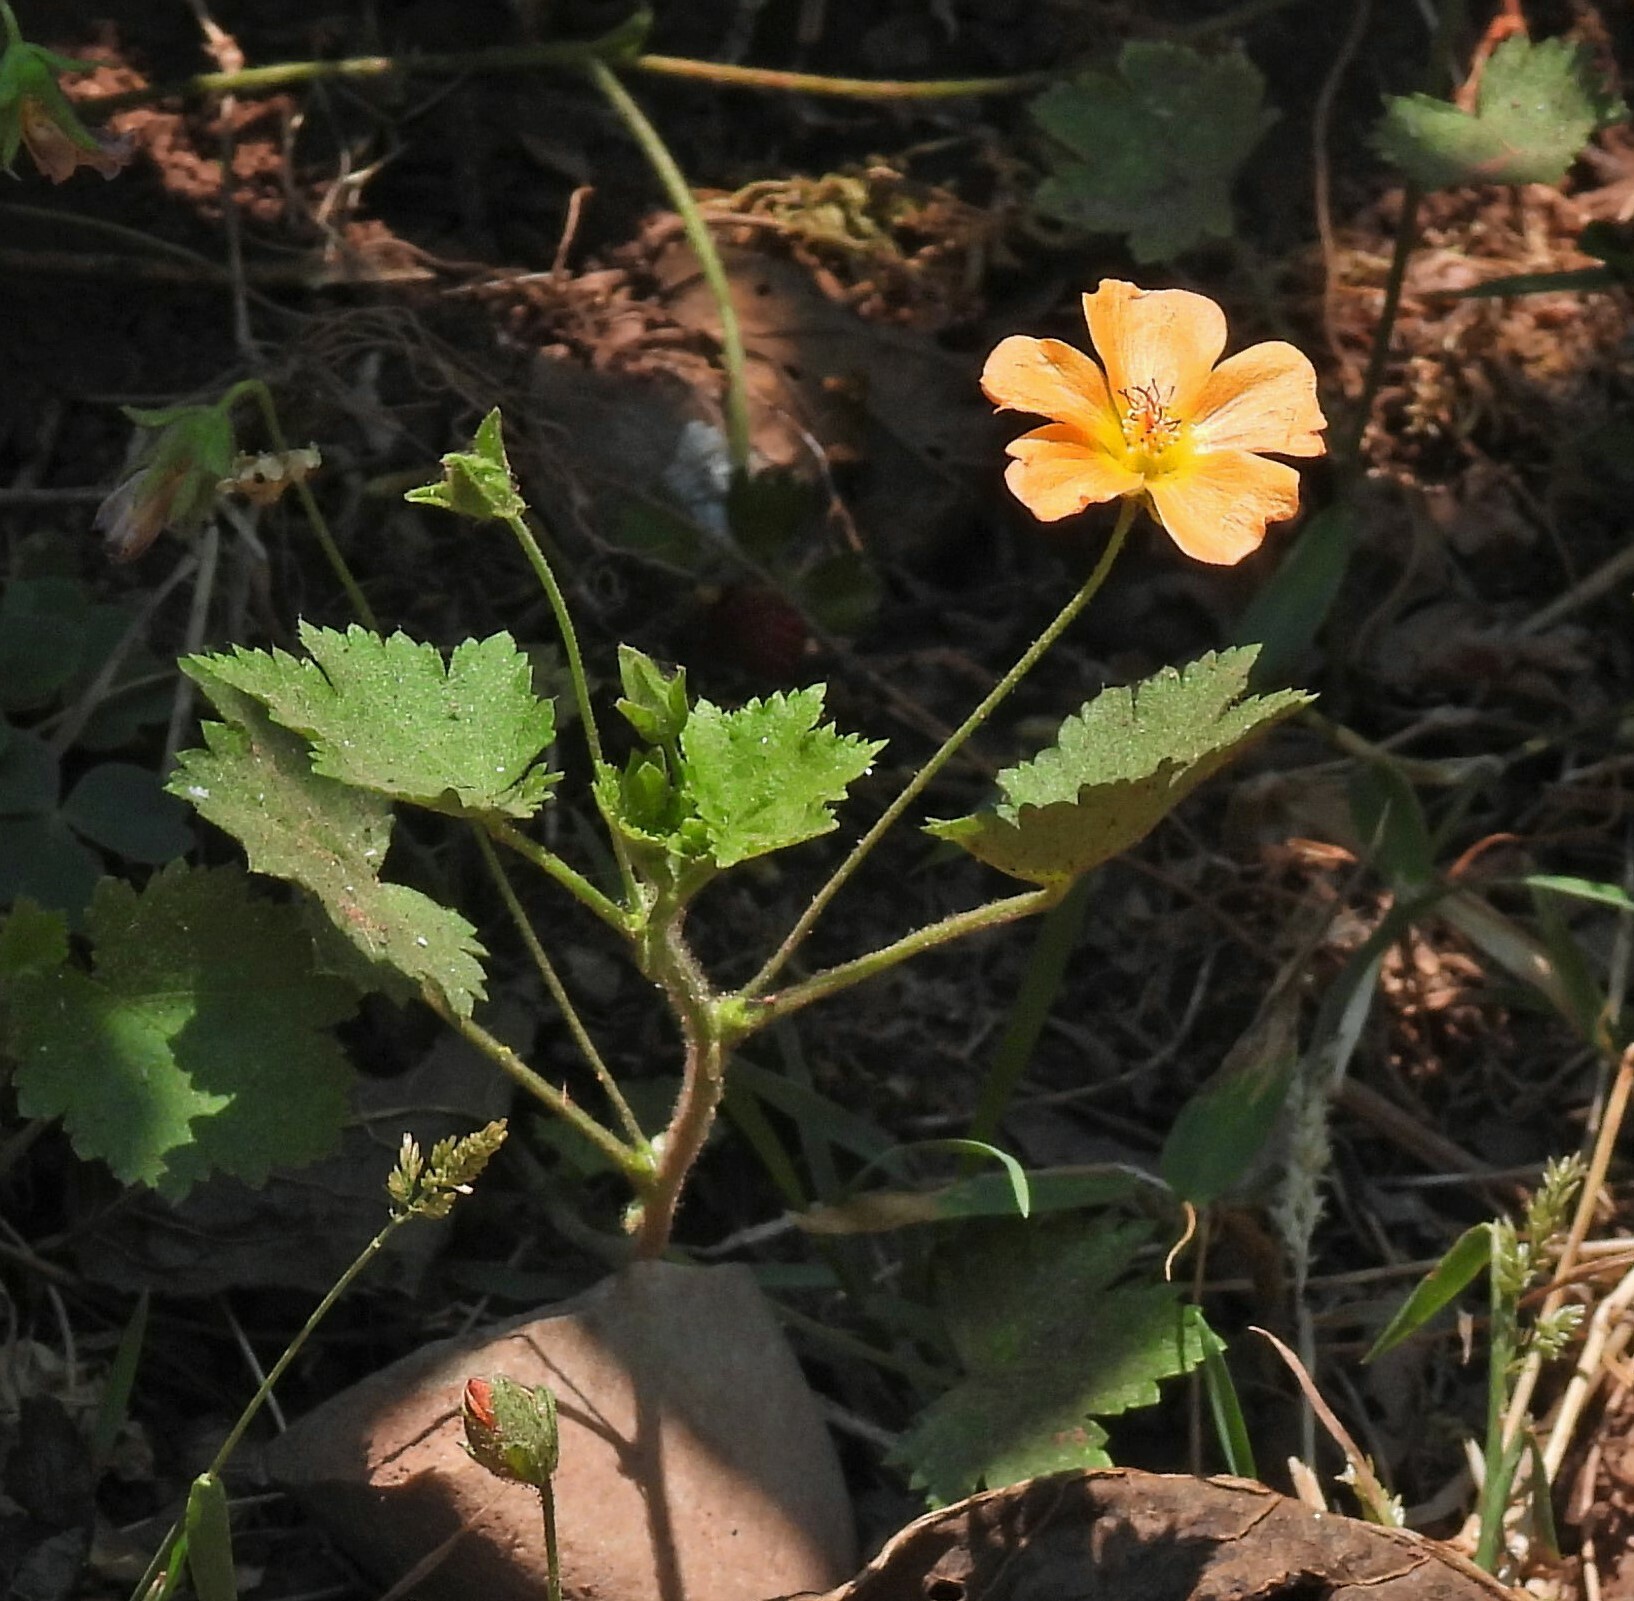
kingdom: Plantae
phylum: Tracheophyta
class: Magnoliopsida
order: Malvales
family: Malvaceae
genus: Modiolastrum
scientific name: Modiolastrum malvifolium
